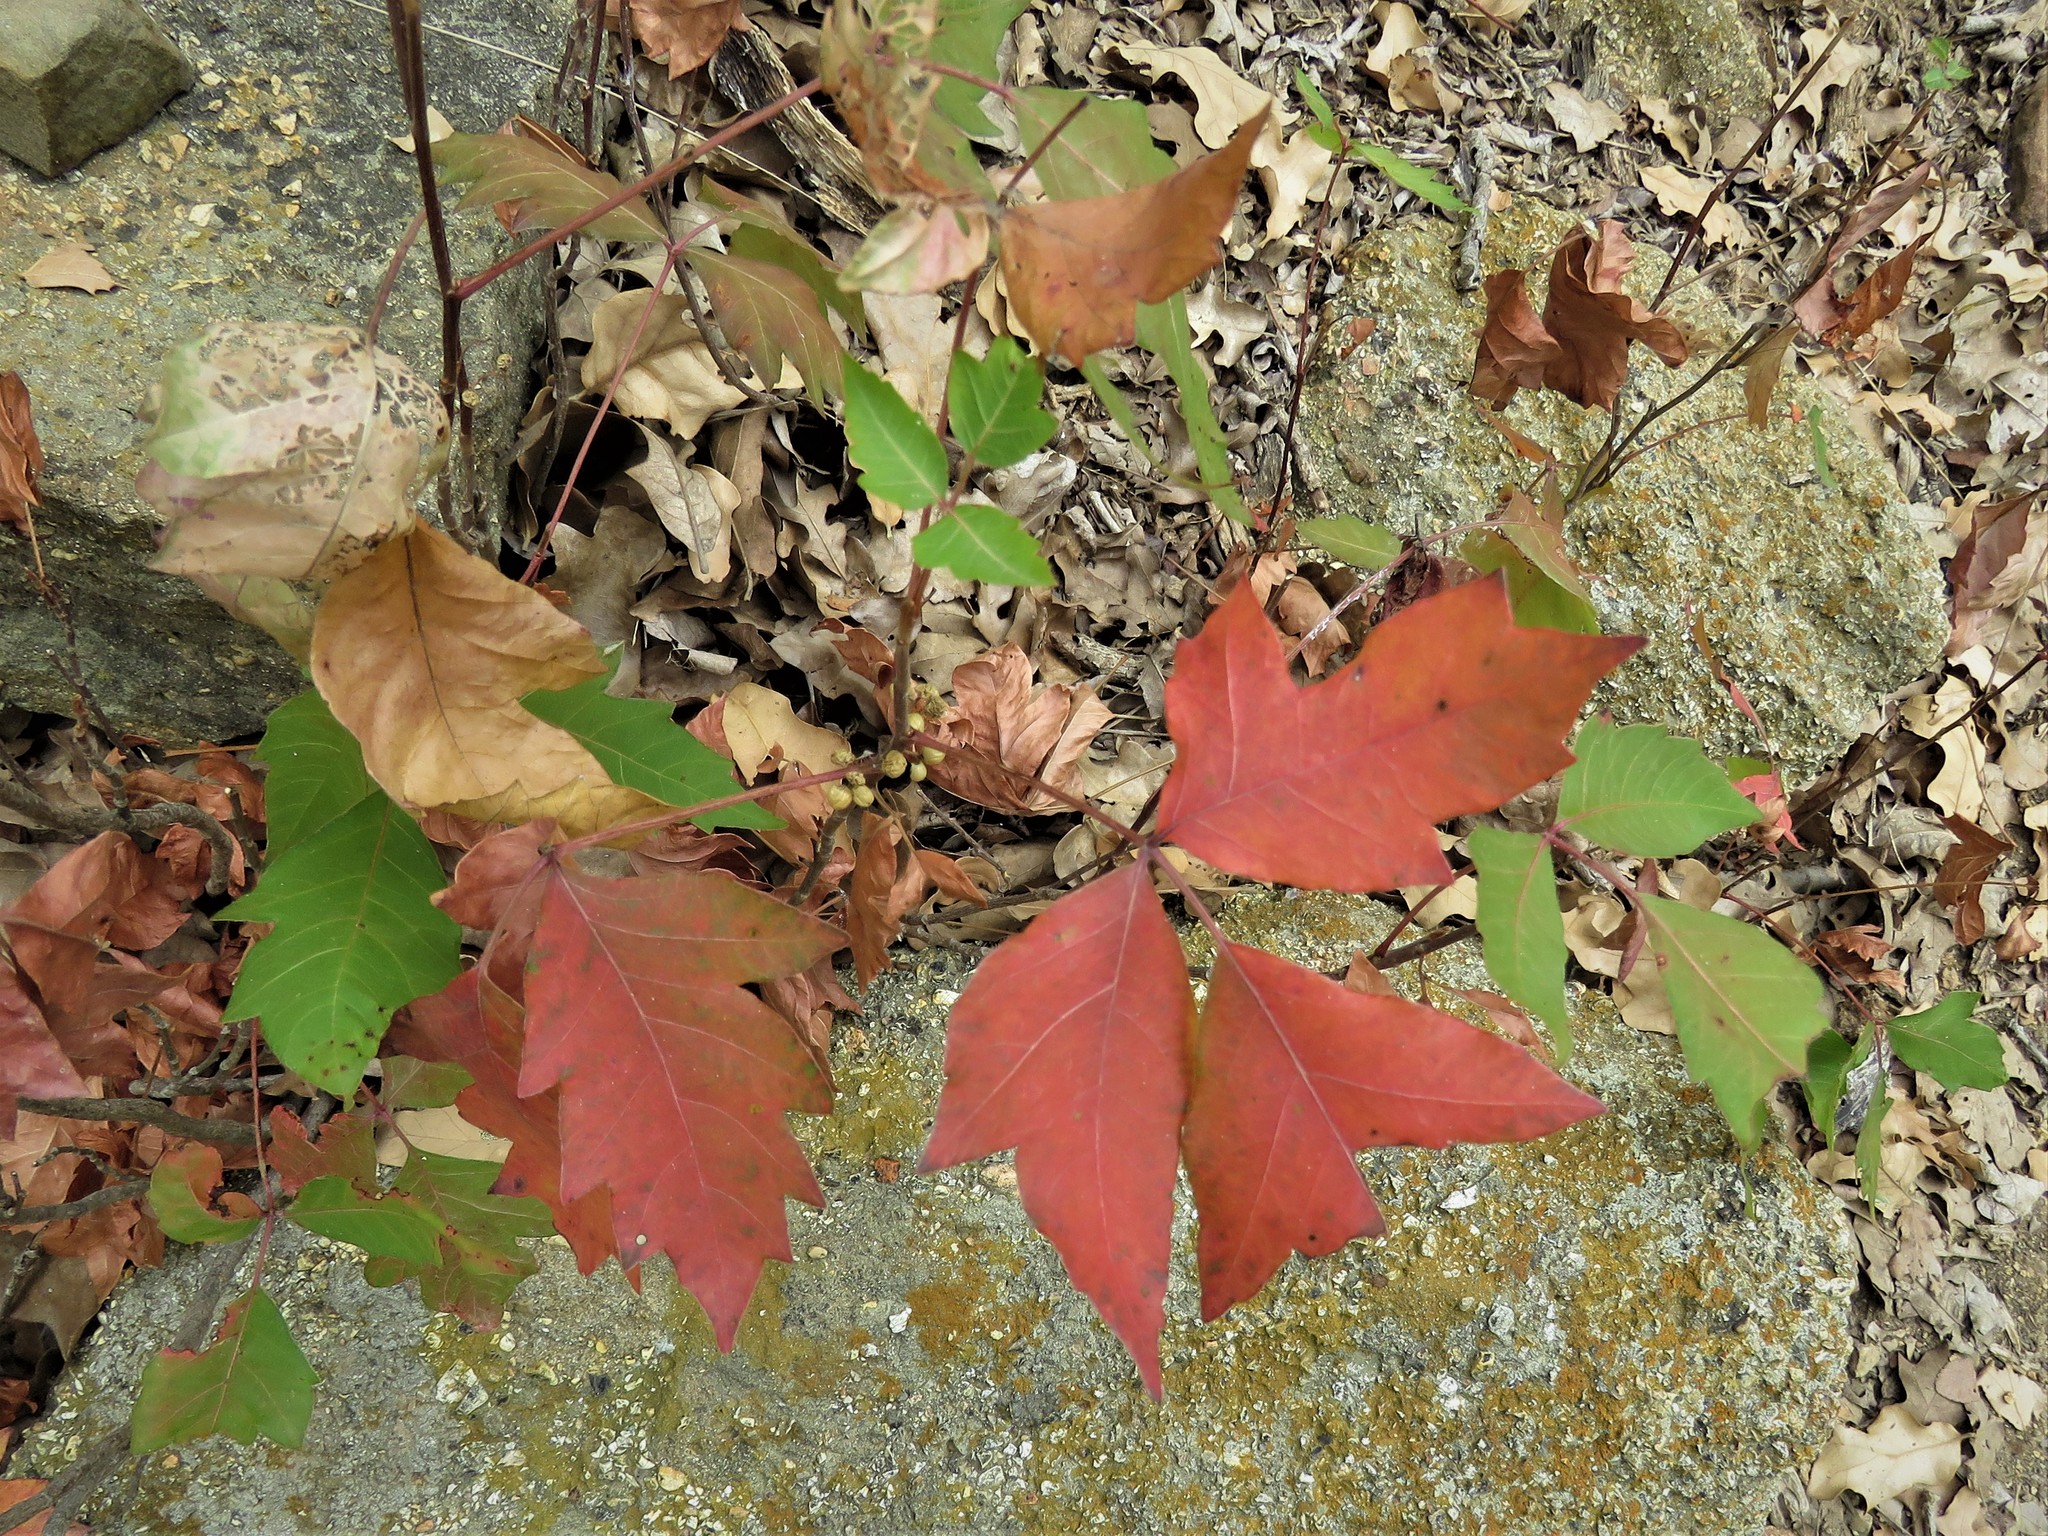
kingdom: Plantae
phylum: Tracheophyta
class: Magnoliopsida
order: Sapindales
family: Anacardiaceae
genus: Toxicodendron
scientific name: Toxicodendron radicans
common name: Poison ivy
